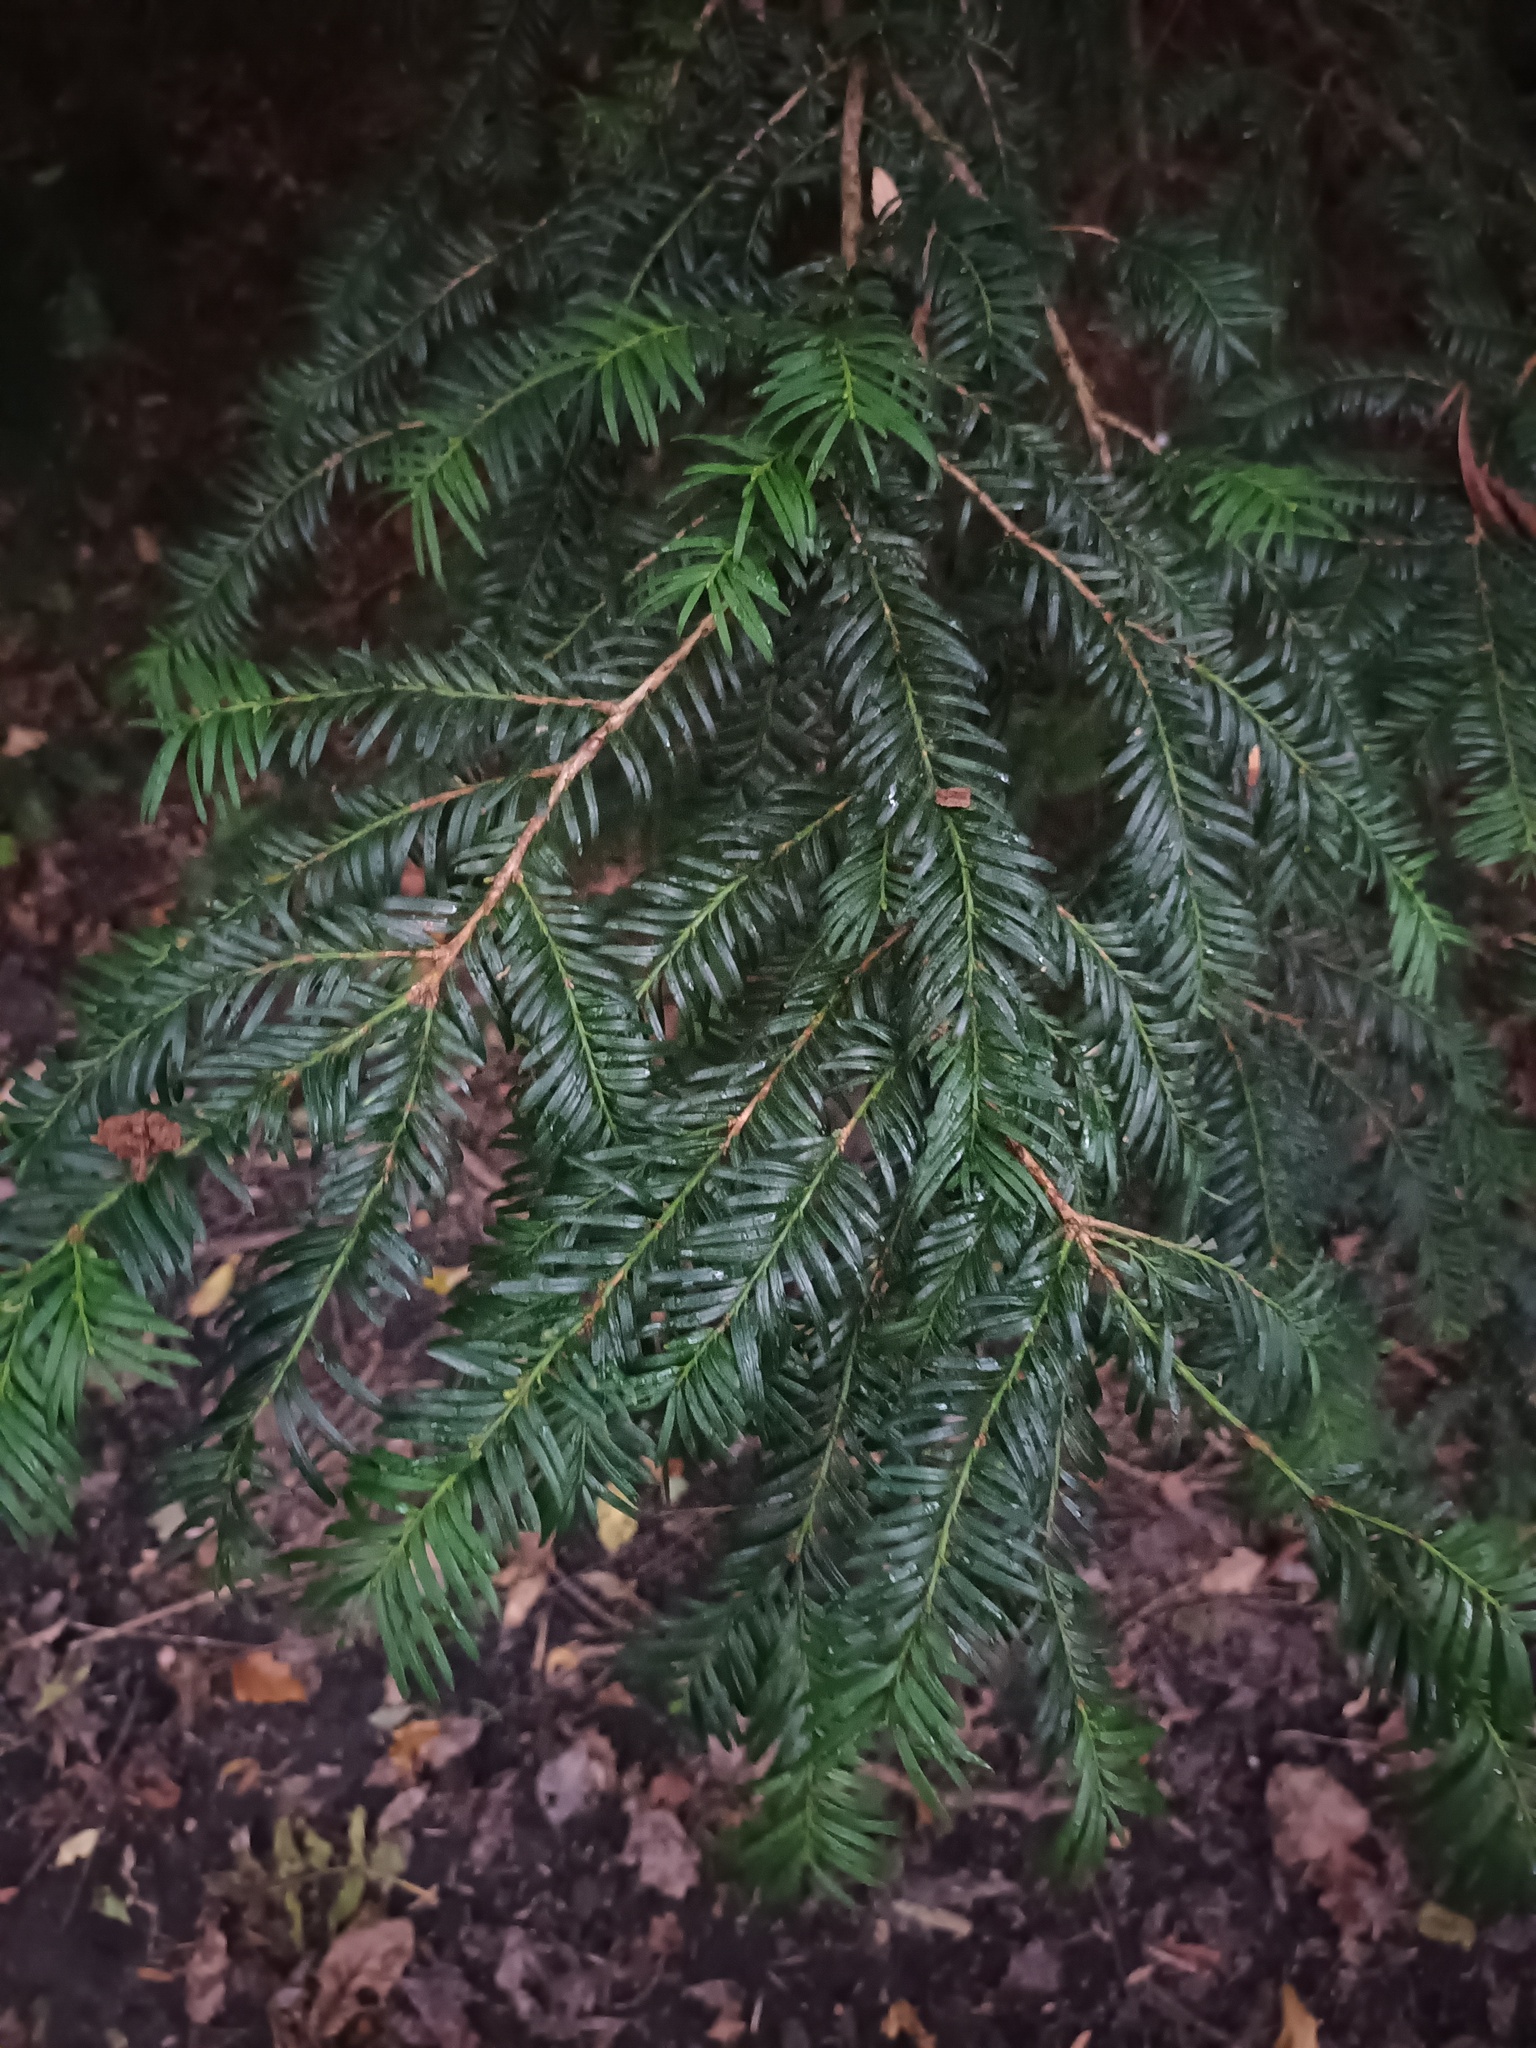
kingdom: Plantae
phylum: Tracheophyta
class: Pinopsida
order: Pinales
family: Taxaceae
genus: Taxus
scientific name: Taxus baccata
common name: Yew
